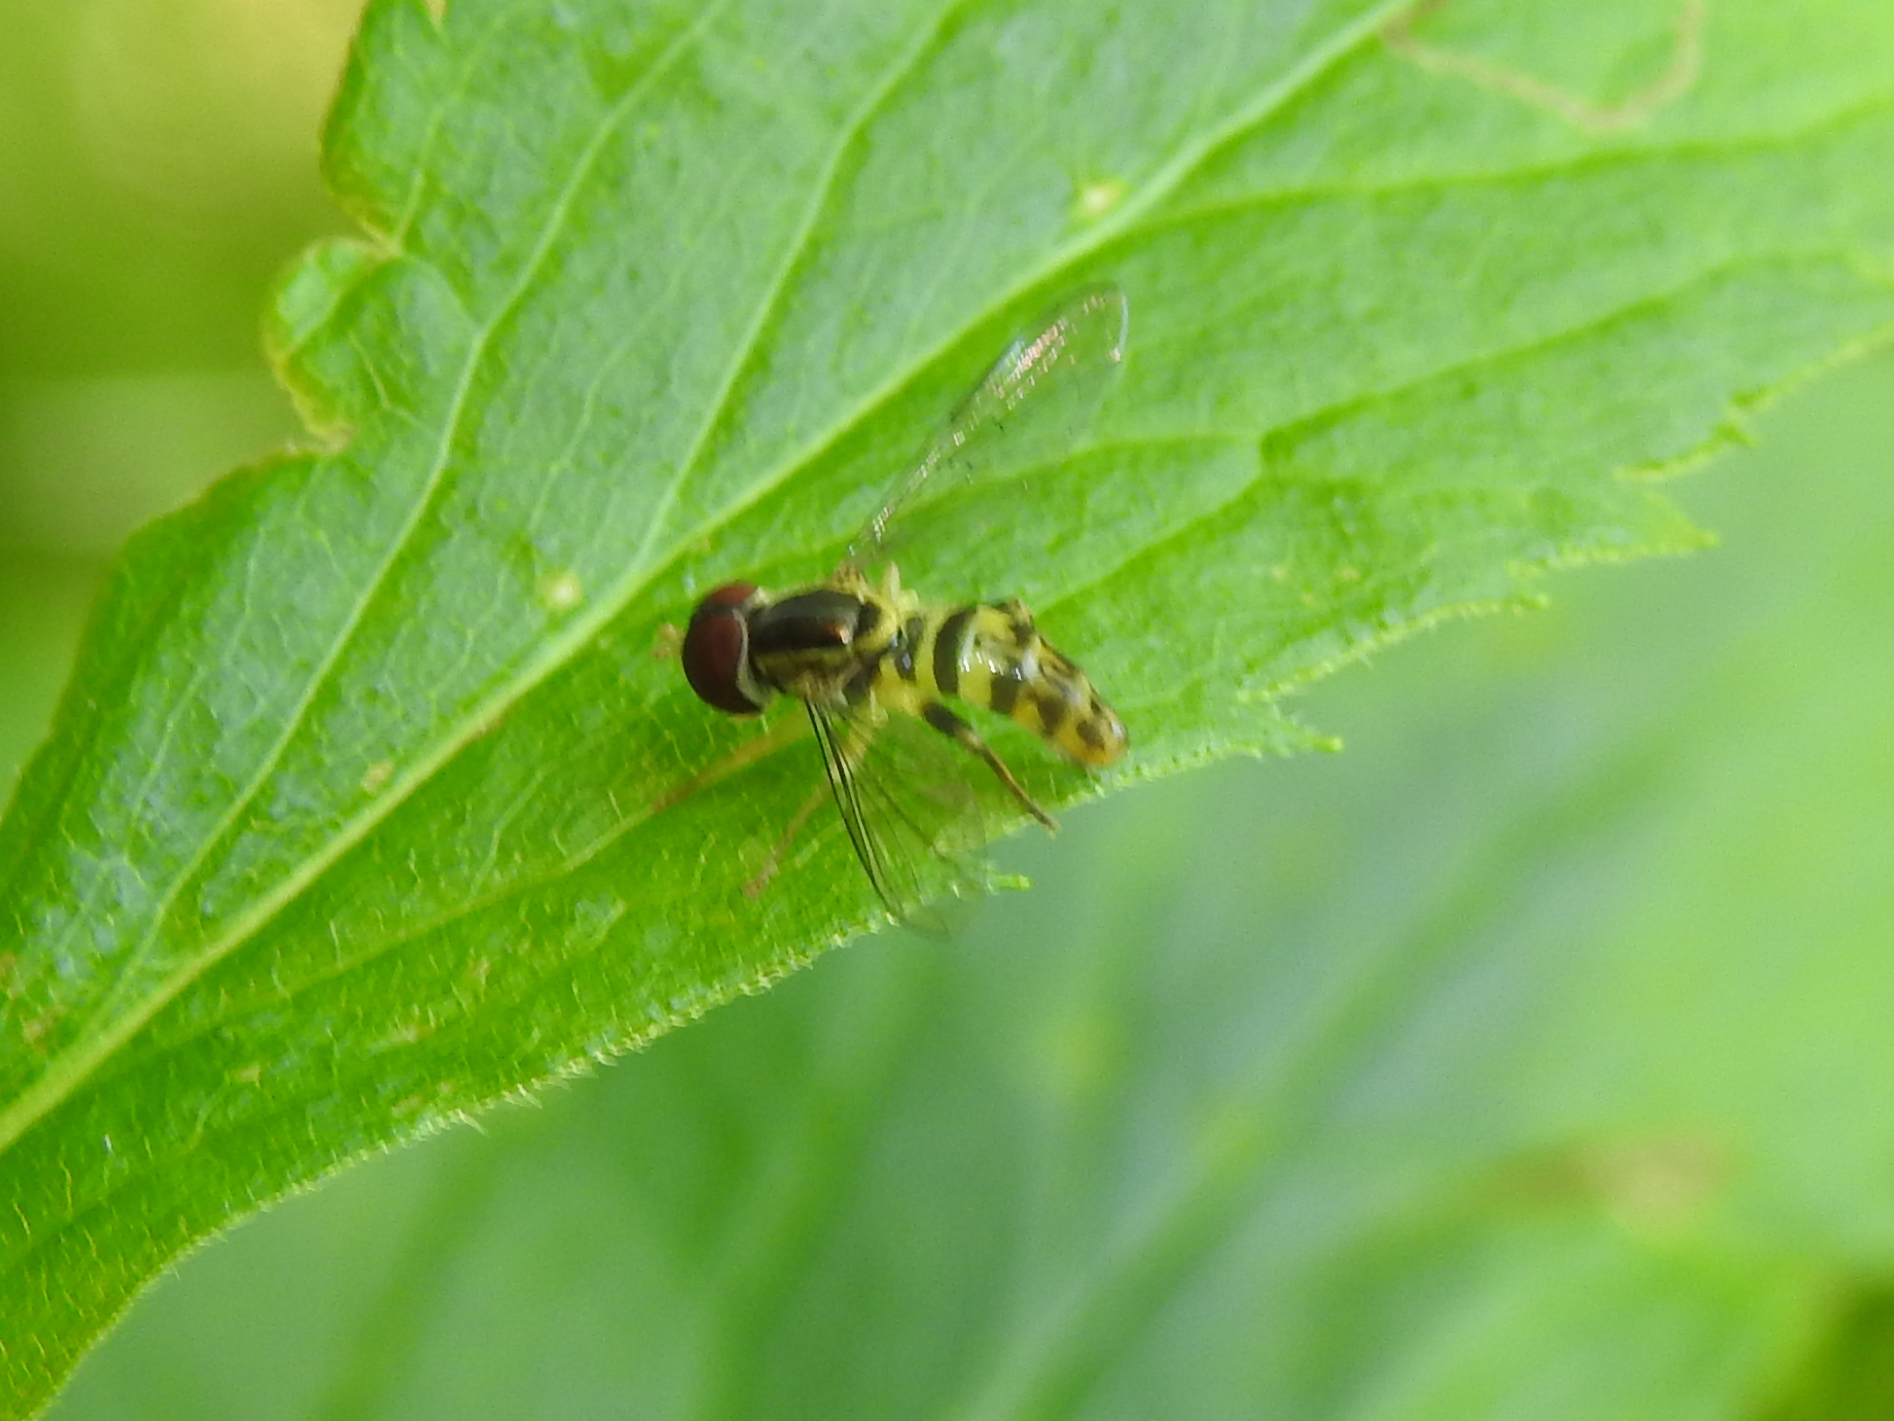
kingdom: Animalia
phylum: Arthropoda
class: Insecta
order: Diptera
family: Syrphidae
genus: Toxomerus
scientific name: Toxomerus geminatus
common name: Eastern calligrapher
